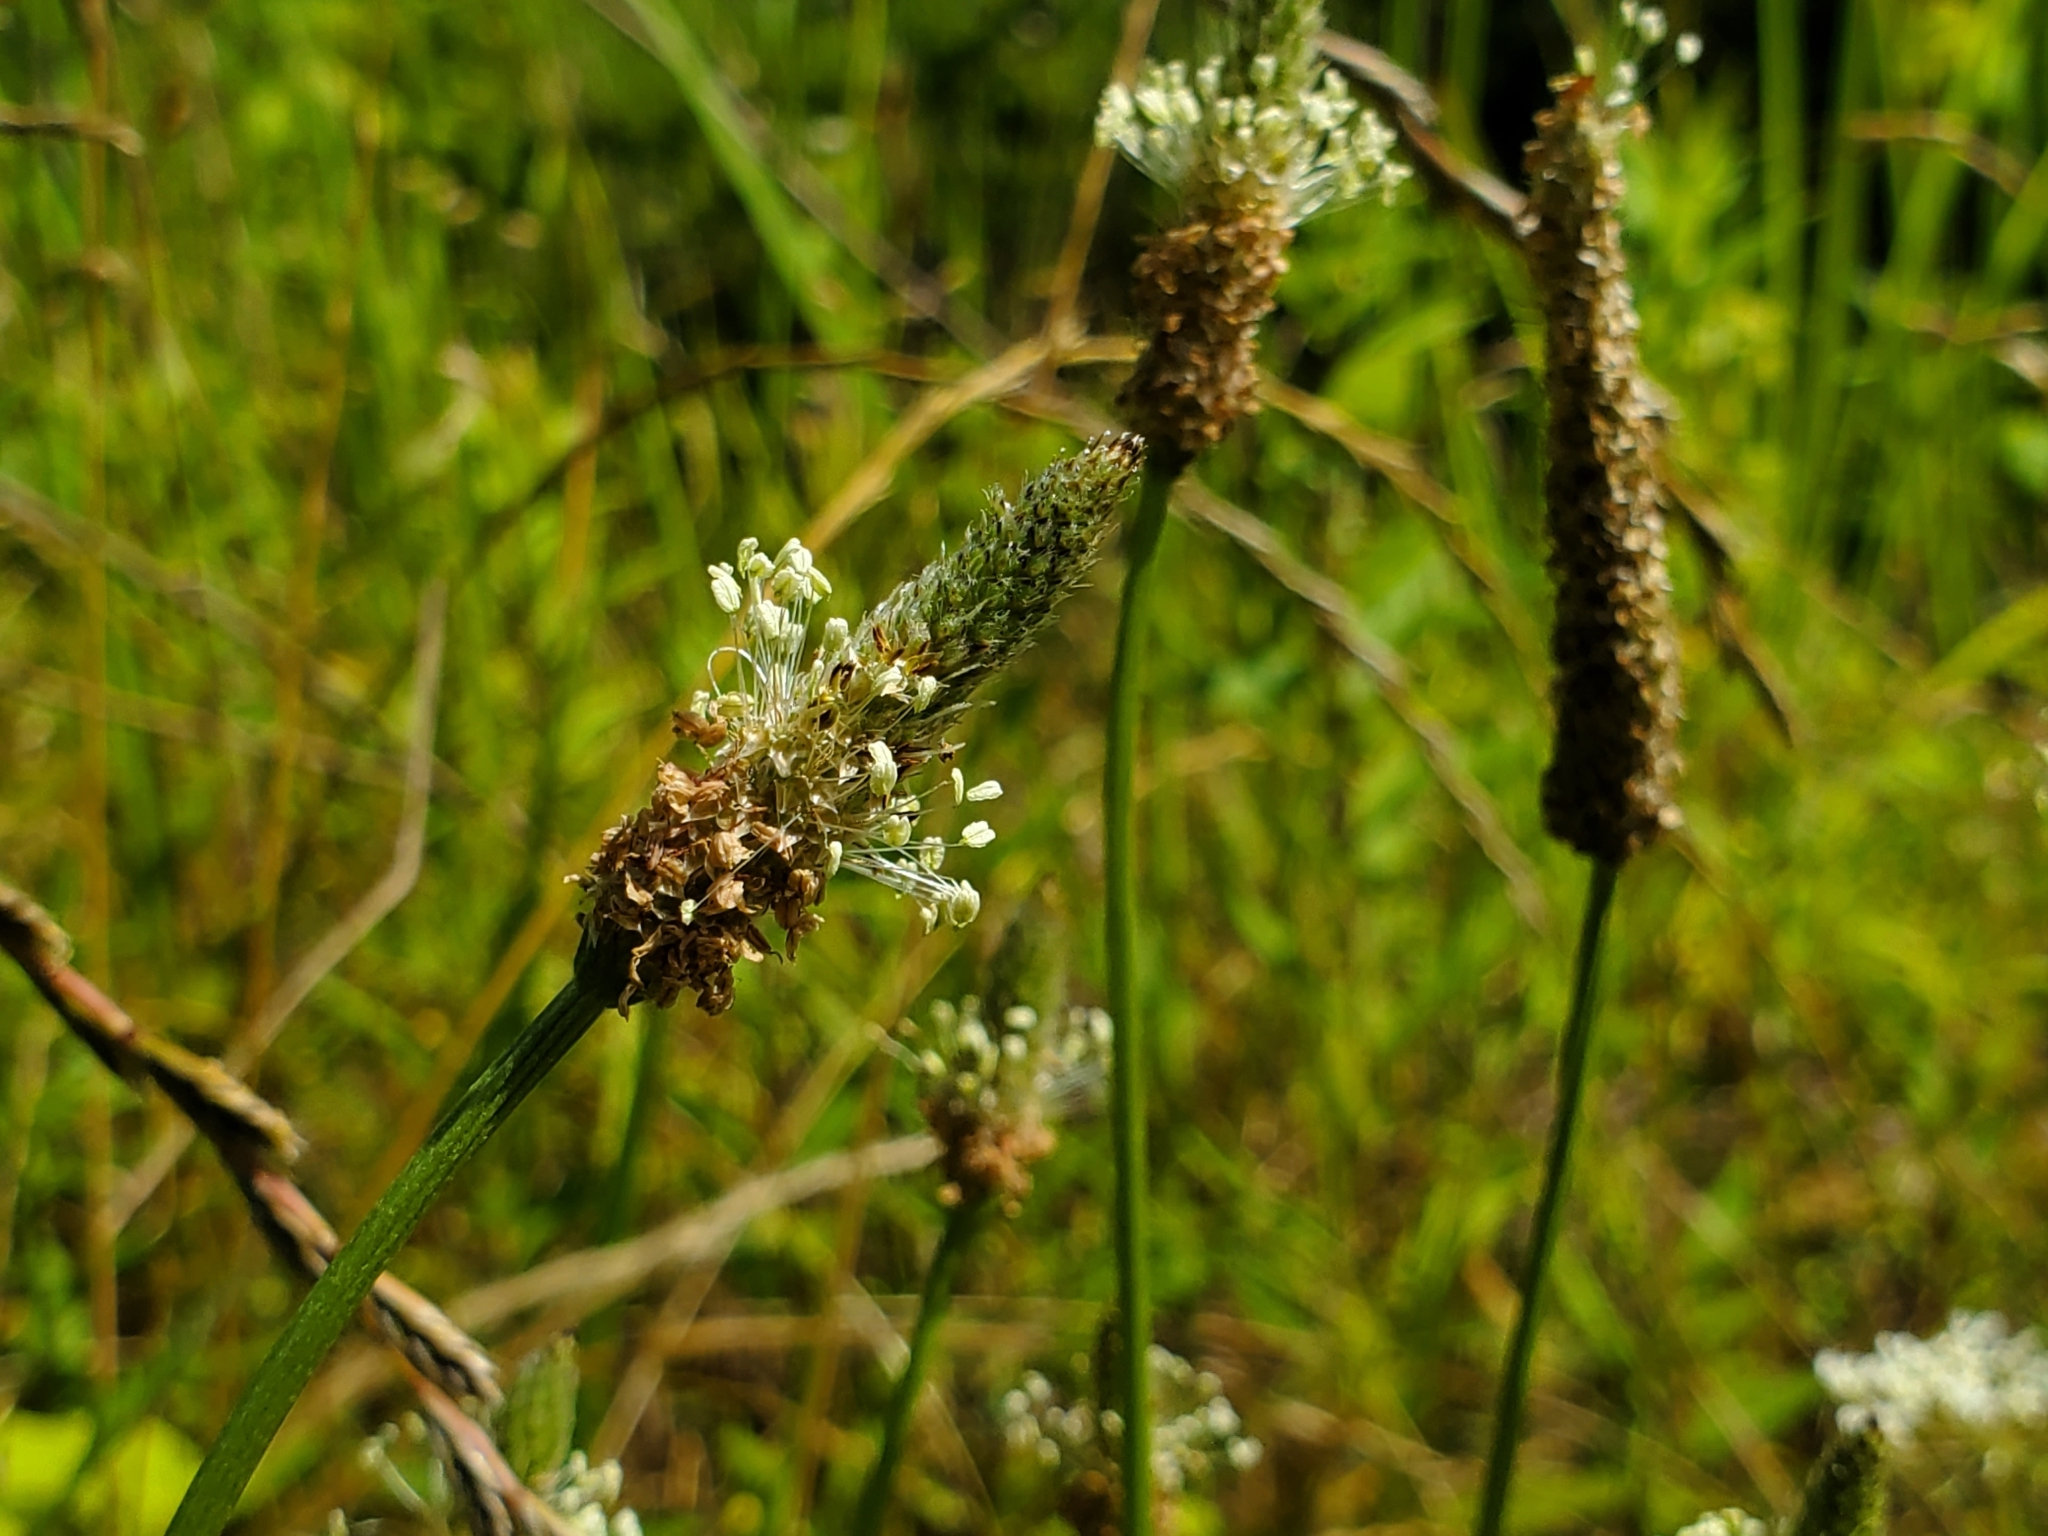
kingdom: Plantae
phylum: Tracheophyta
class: Magnoliopsida
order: Lamiales
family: Plantaginaceae
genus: Plantago
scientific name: Plantago lanceolata
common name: Ribwort plantain
